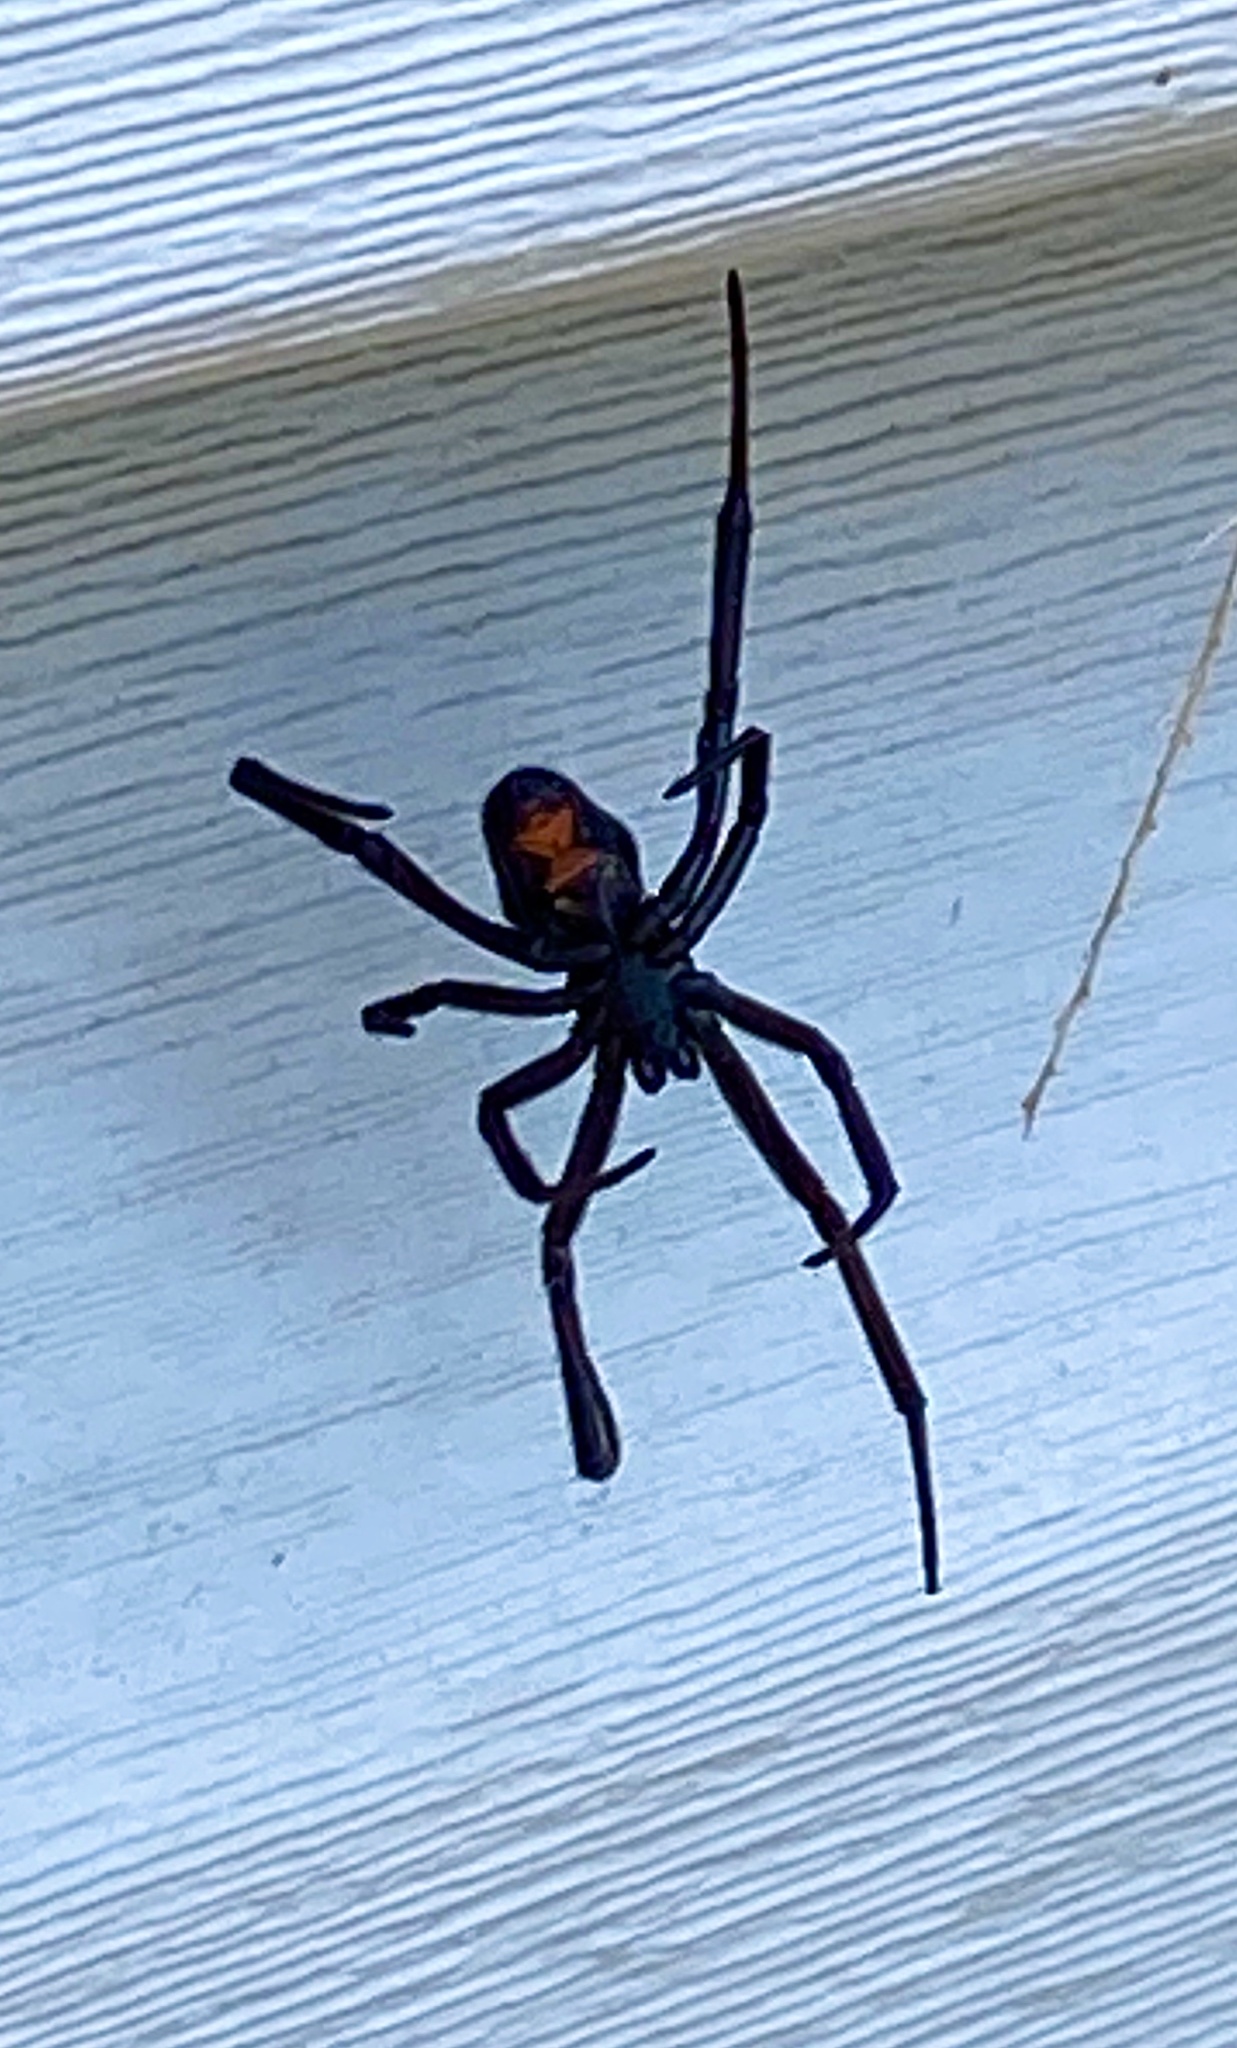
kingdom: Animalia
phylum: Arthropoda
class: Arachnida
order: Araneae
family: Theridiidae
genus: Latrodectus
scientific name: Latrodectus hesperus
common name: Western black widow
